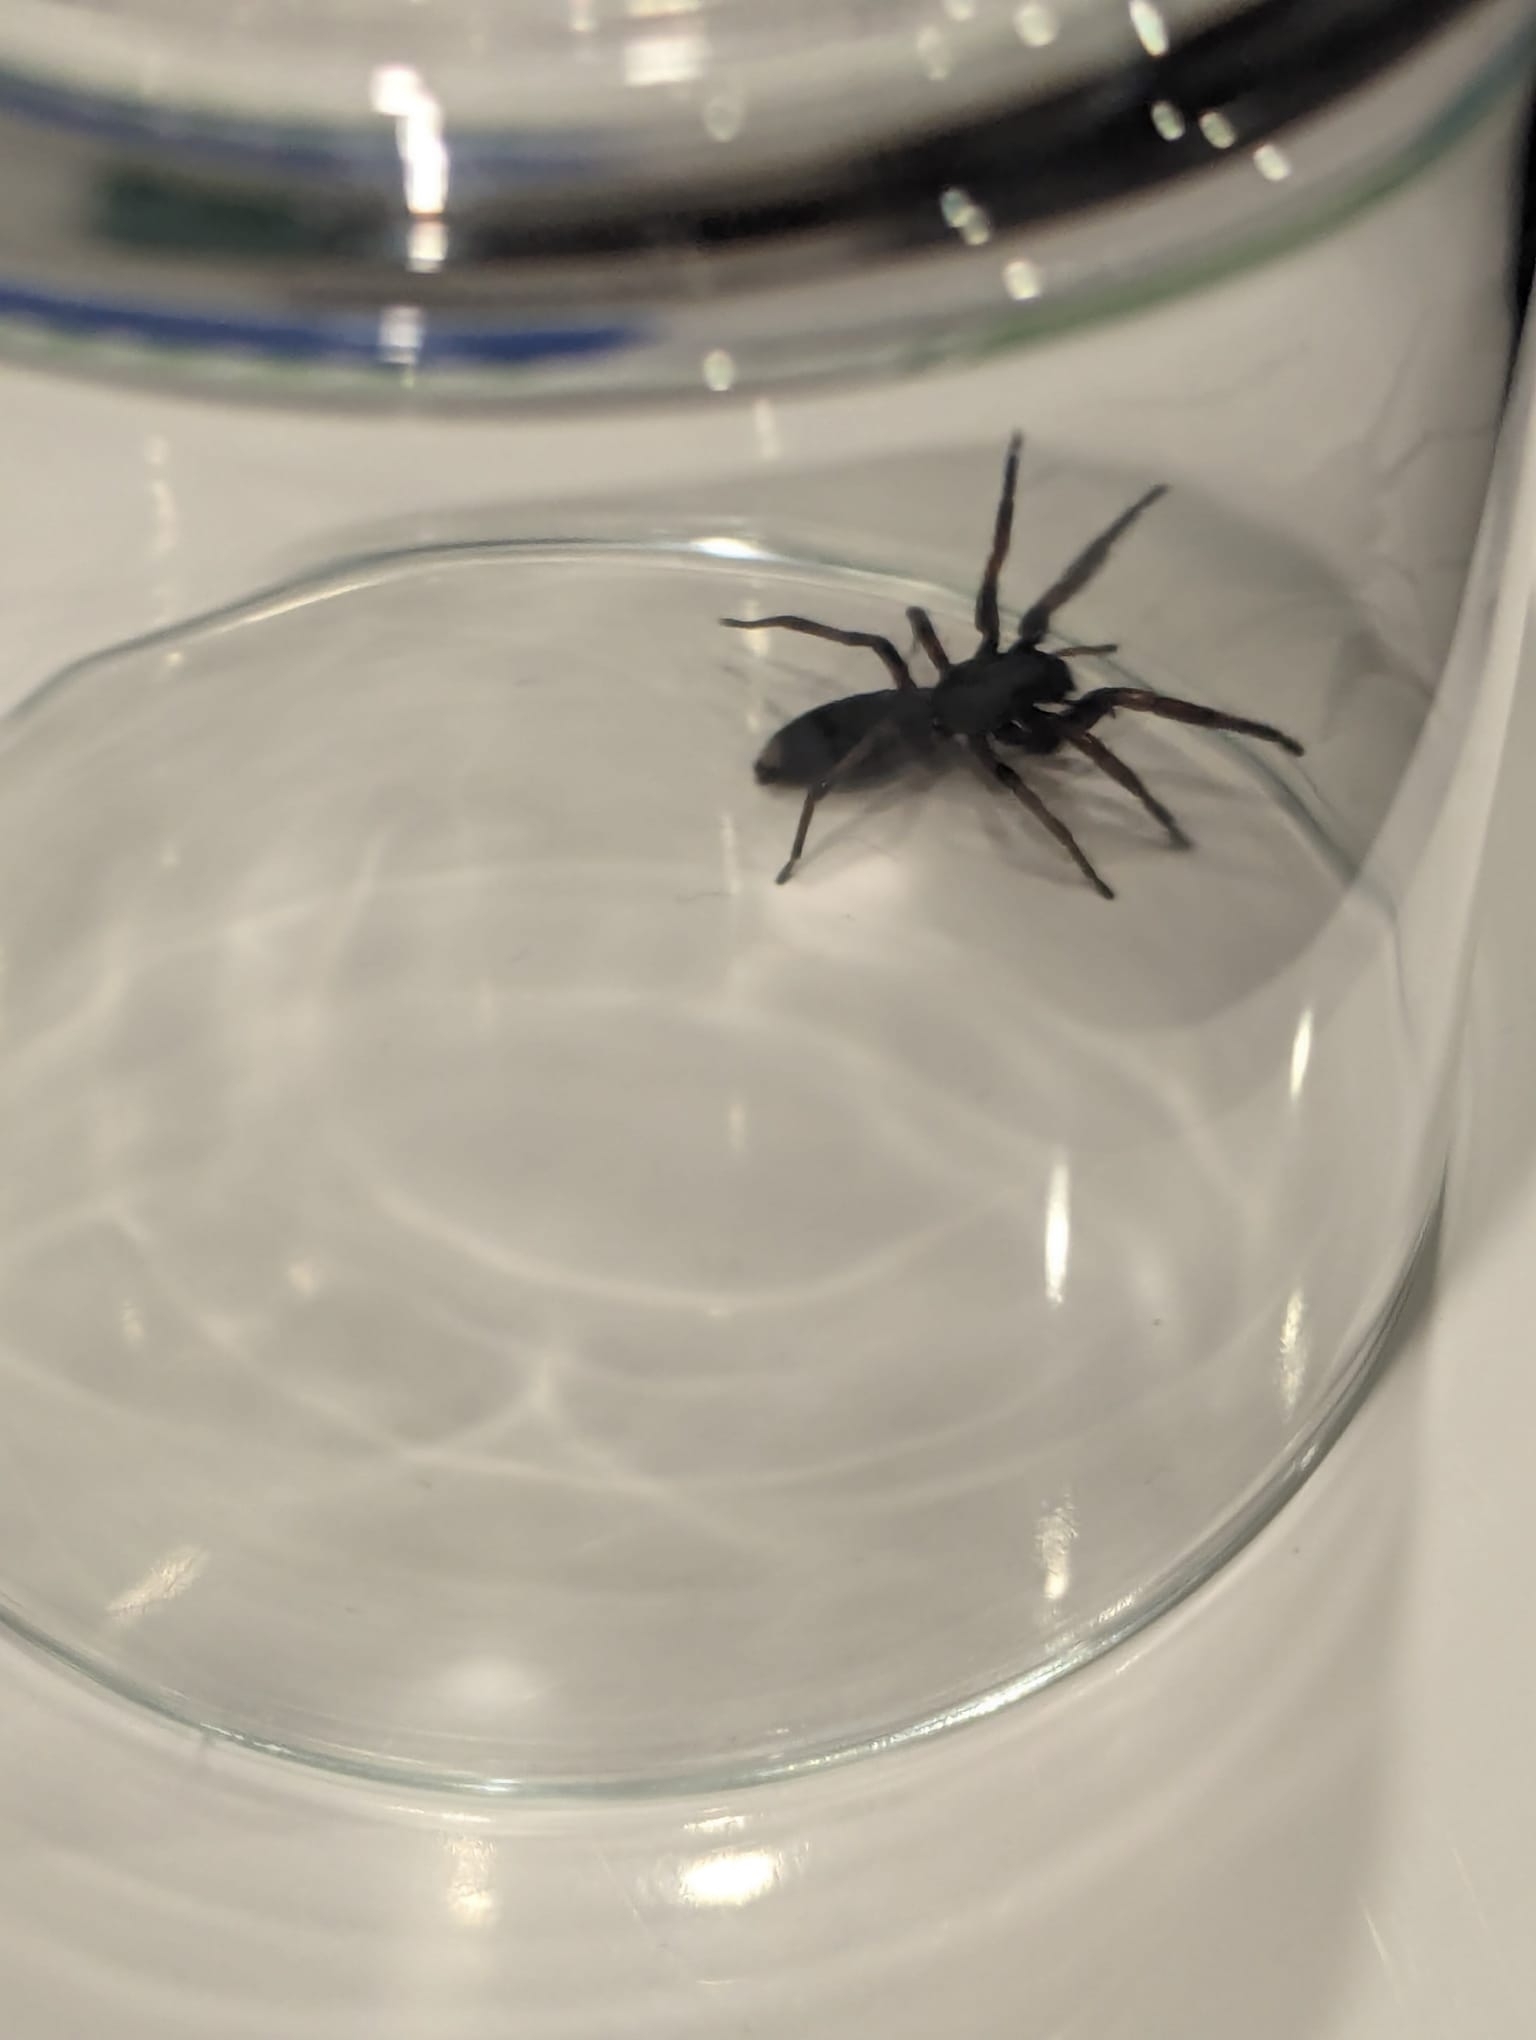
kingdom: Animalia
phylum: Arthropoda
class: Arachnida
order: Araneae
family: Lamponidae
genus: Lampona
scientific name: Lampona murina
